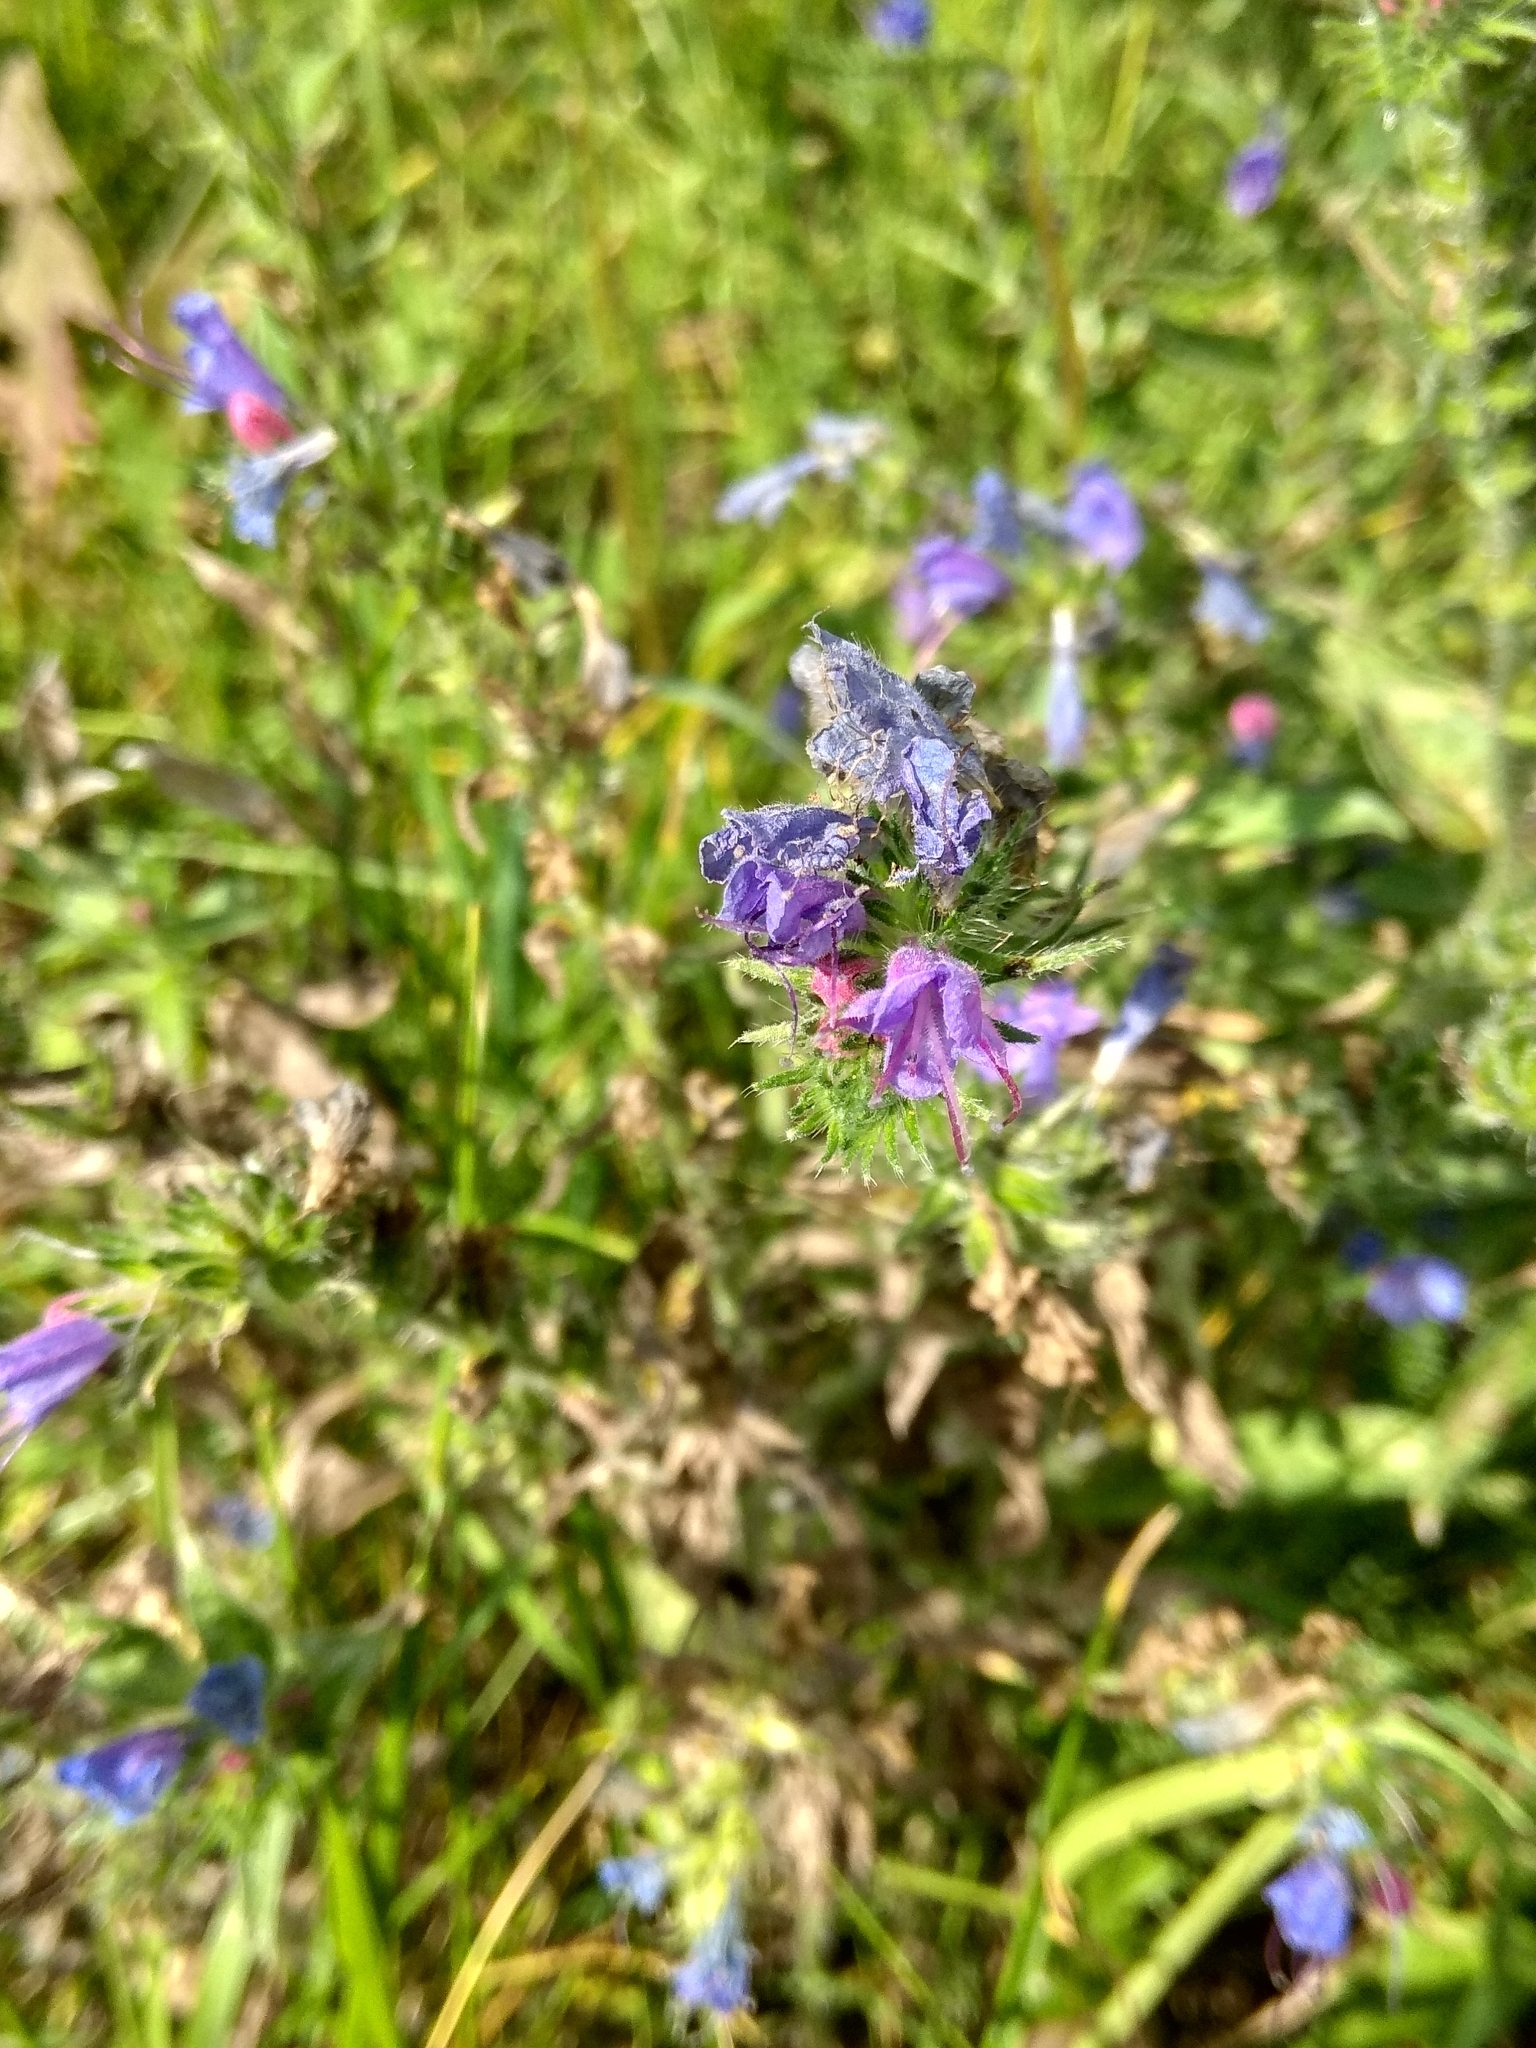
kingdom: Plantae
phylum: Tracheophyta
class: Magnoliopsida
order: Boraginales
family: Boraginaceae
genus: Echium
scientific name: Echium vulgare
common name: Common viper's bugloss
